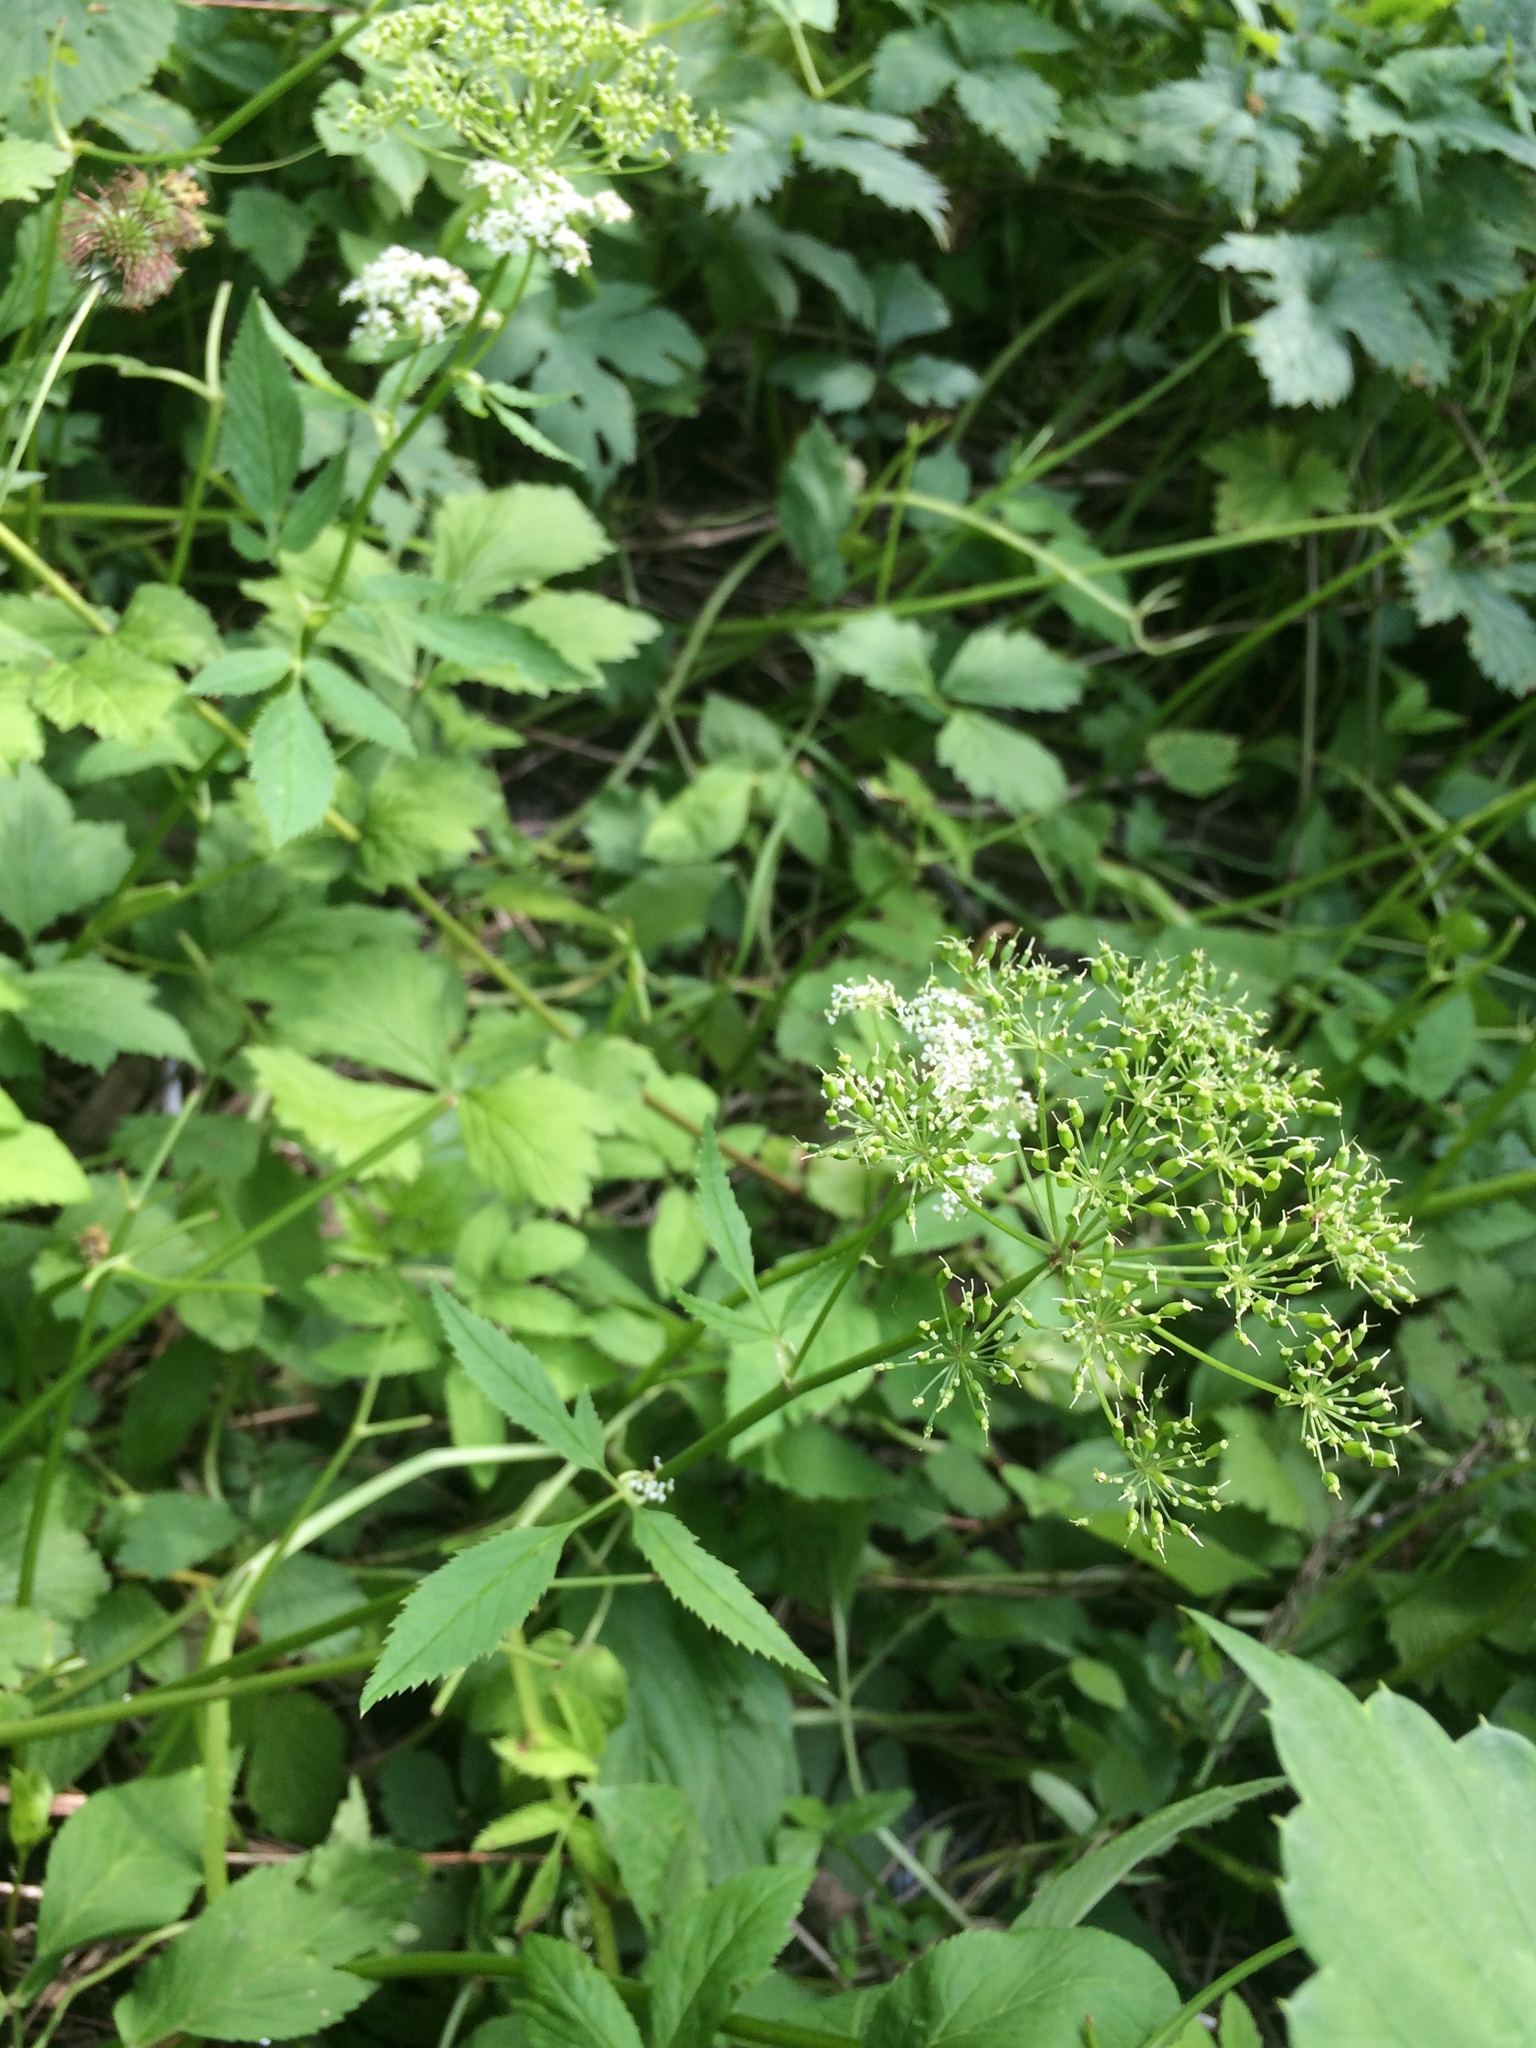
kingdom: Plantae
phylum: Tracheophyta
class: Magnoliopsida
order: Apiales
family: Apiaceae
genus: Aegopodium
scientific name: Aegopodium podagraria
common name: Ground-elder
